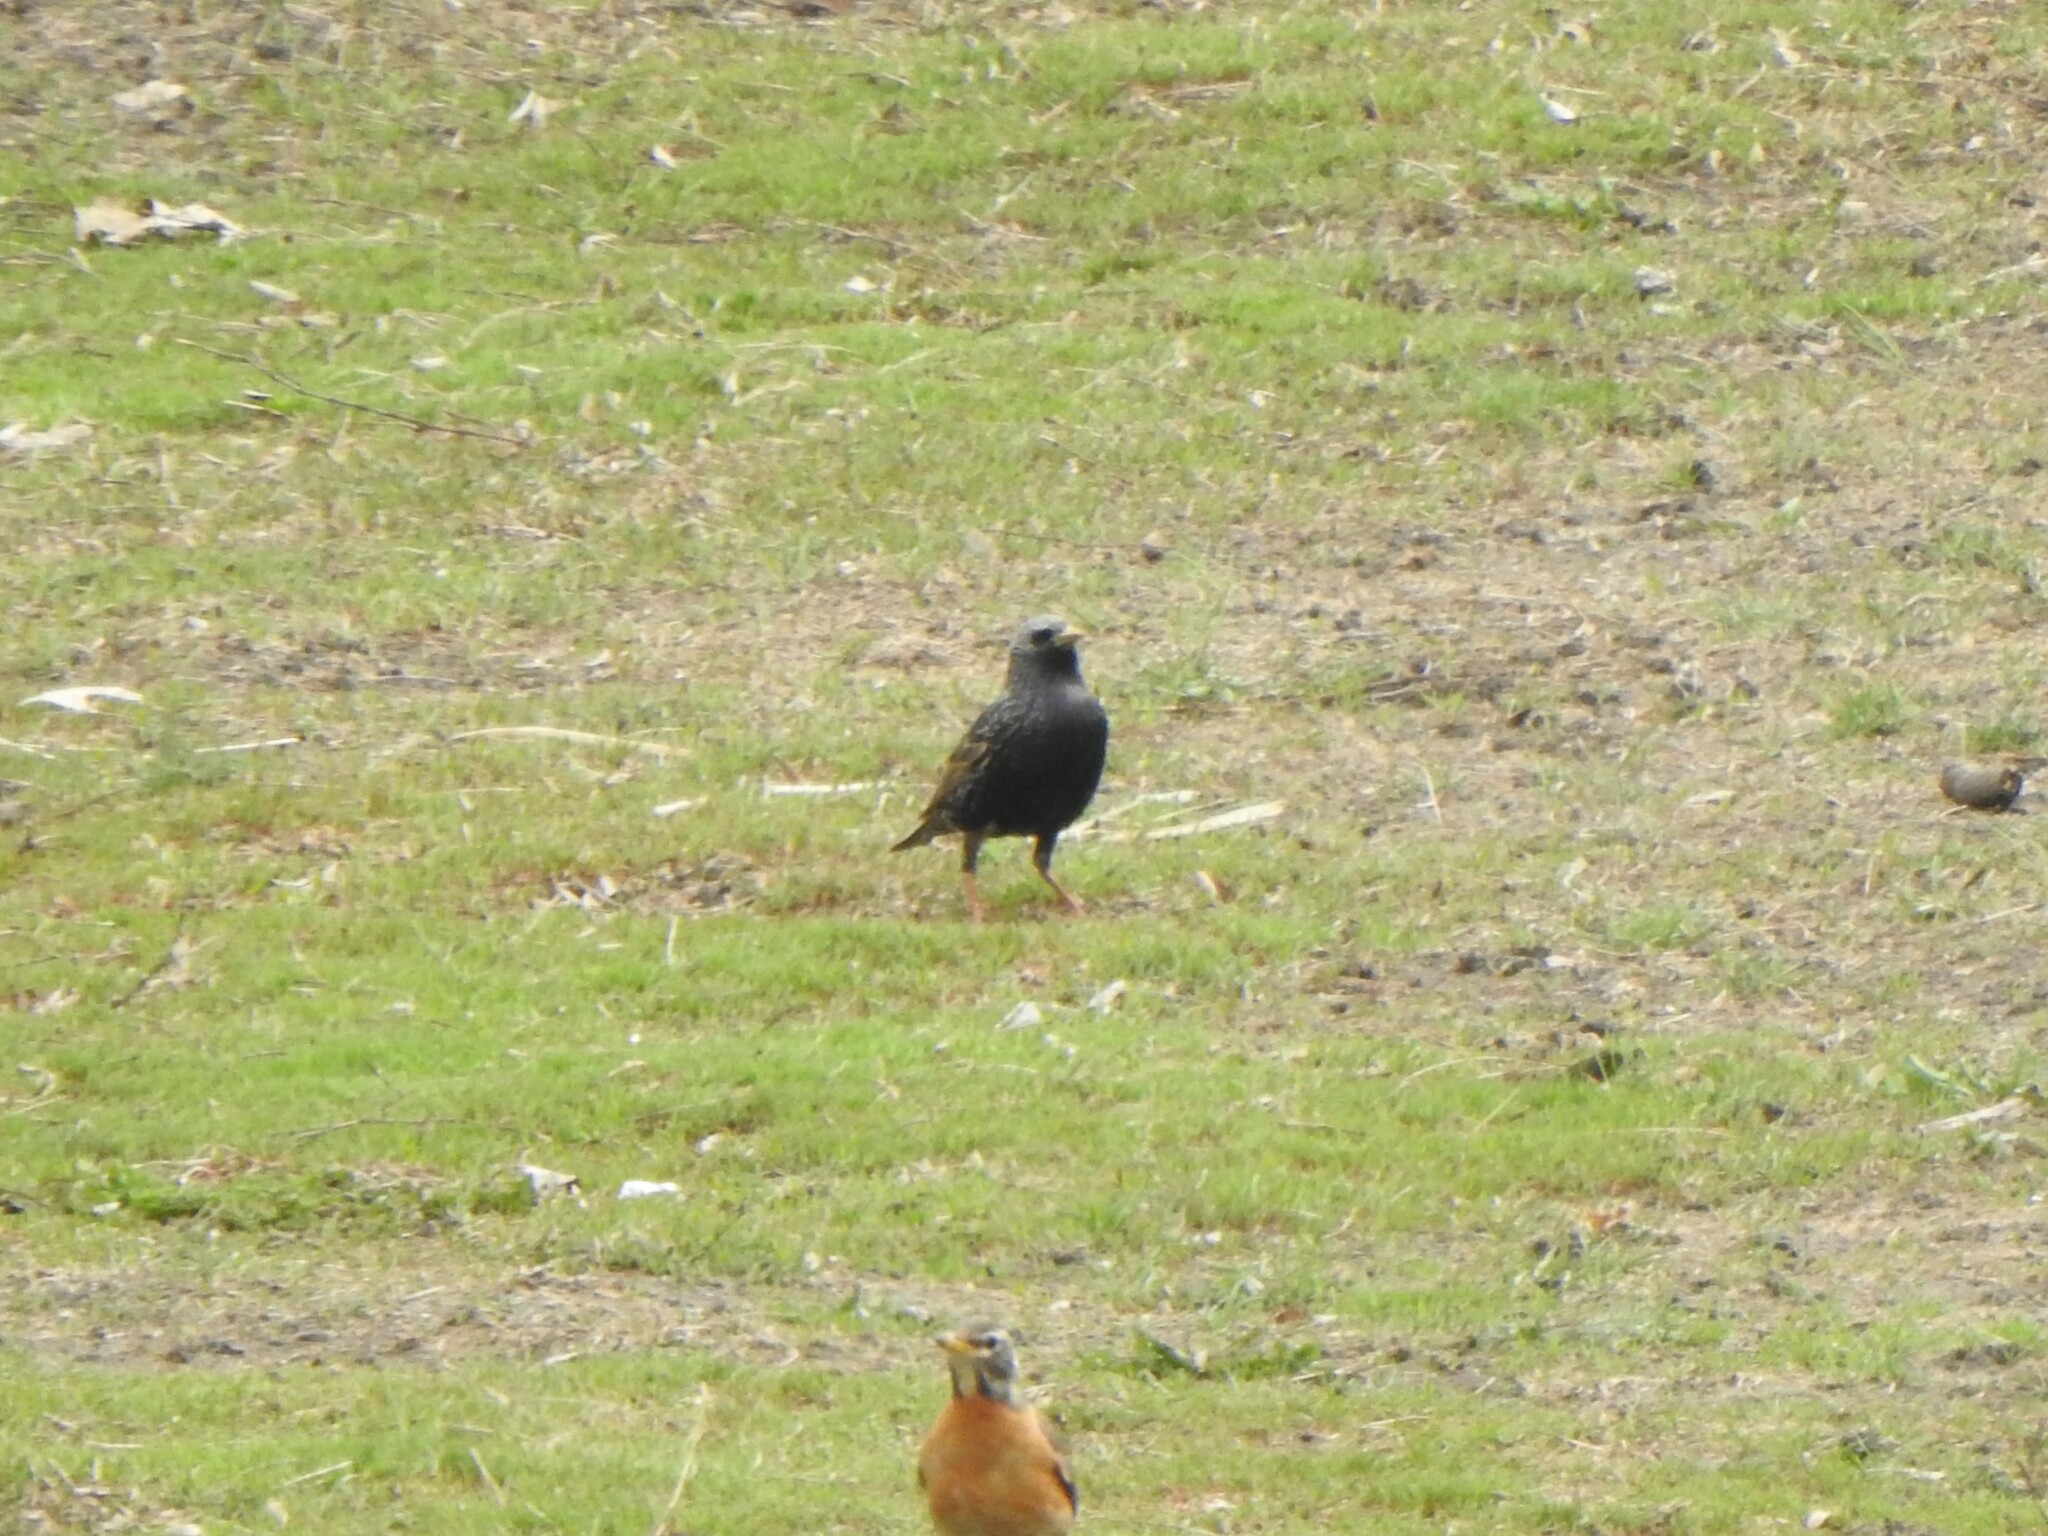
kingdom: Animalia
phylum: Chordata
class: Aves
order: Passeriformes
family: Sturnidae
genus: Sturnus
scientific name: Sturnus vulgaris
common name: Common starling
